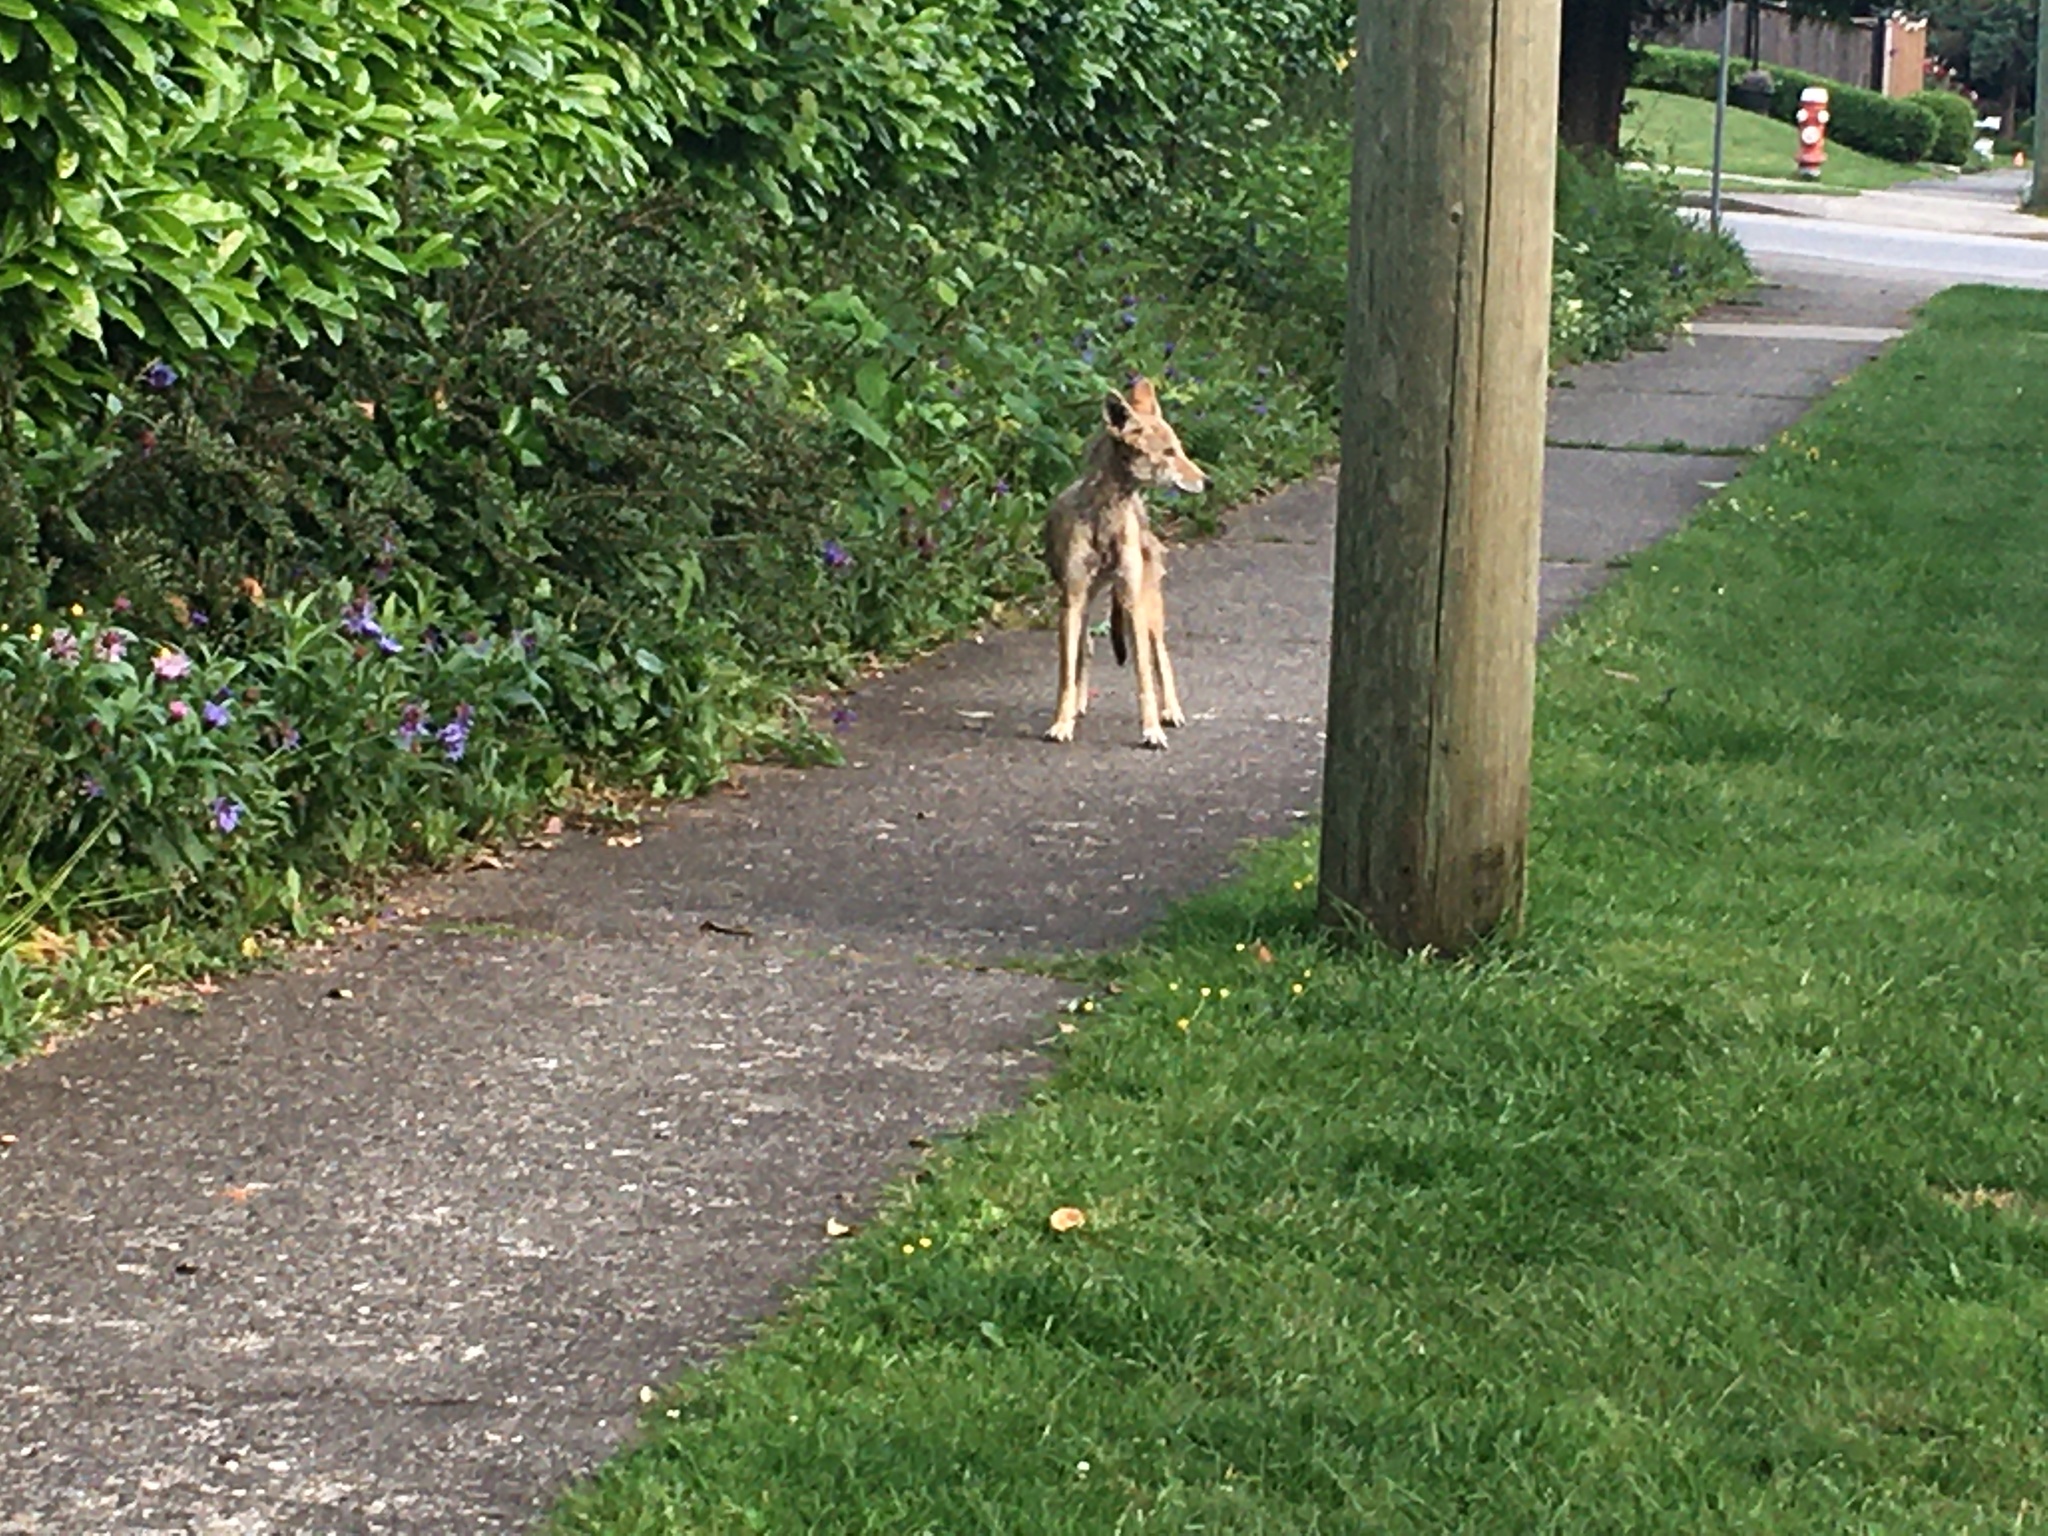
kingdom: Animalia
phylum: Chordata
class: Mammalia
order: Carnivora
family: Canidae
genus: Canis
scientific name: Canis latrans
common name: Coyote
